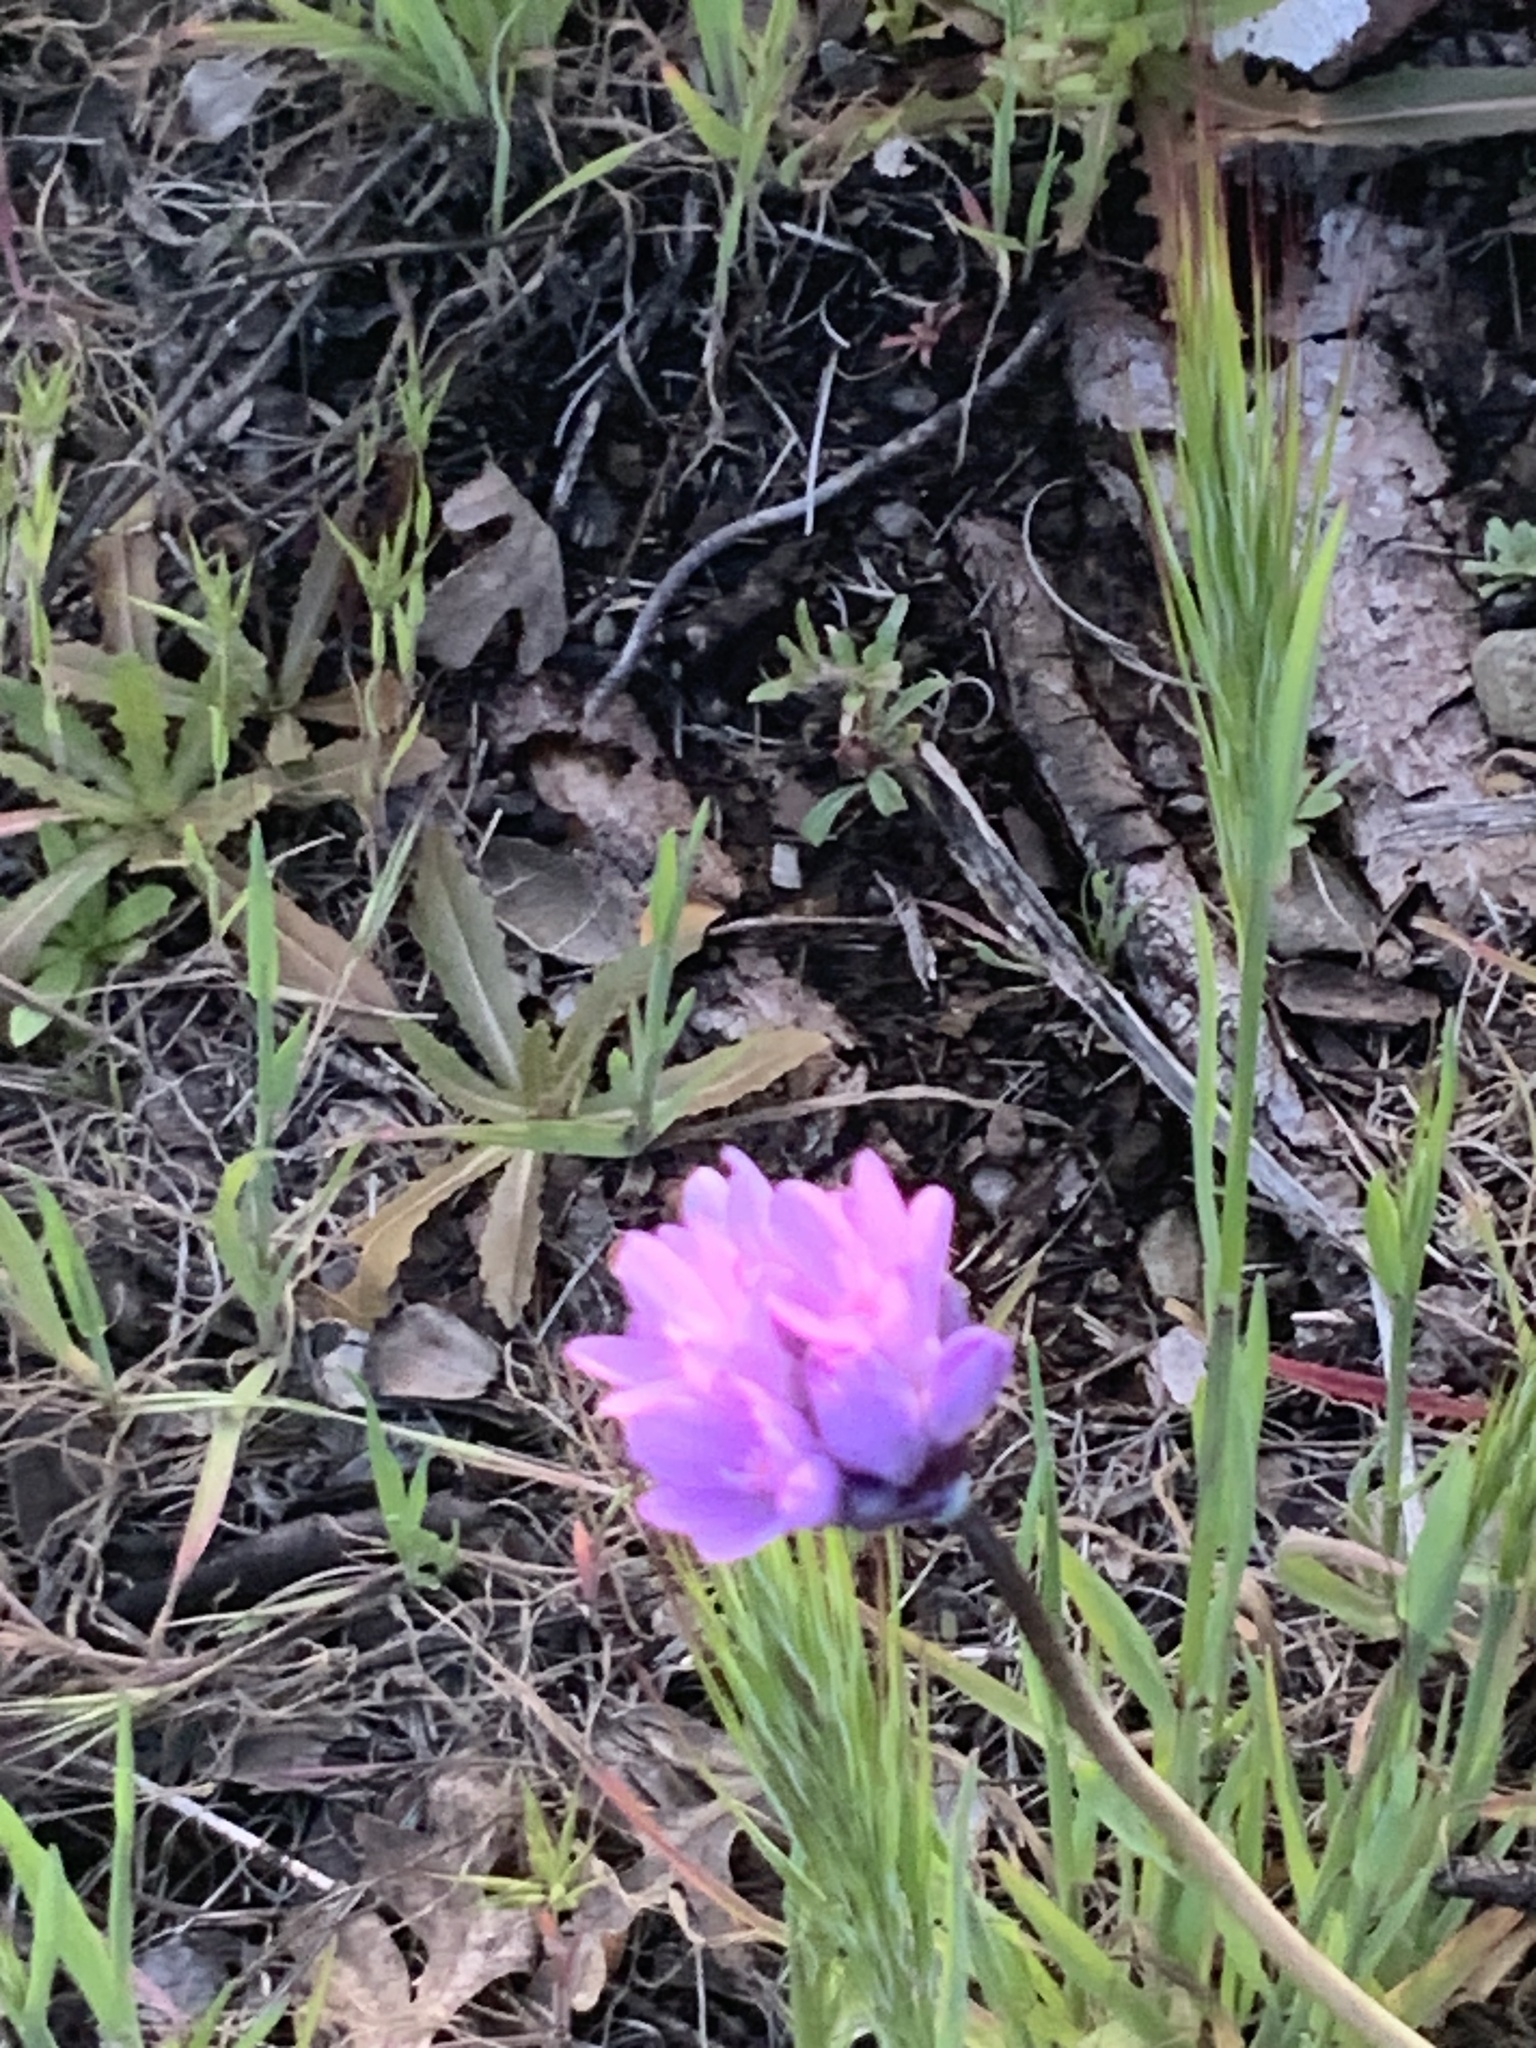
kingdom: Plantae
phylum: Tracheophyta
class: Liliopsida
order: Asparagales
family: Asparagaceae
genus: Dipterostemon
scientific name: Dipterostemon capitatus
